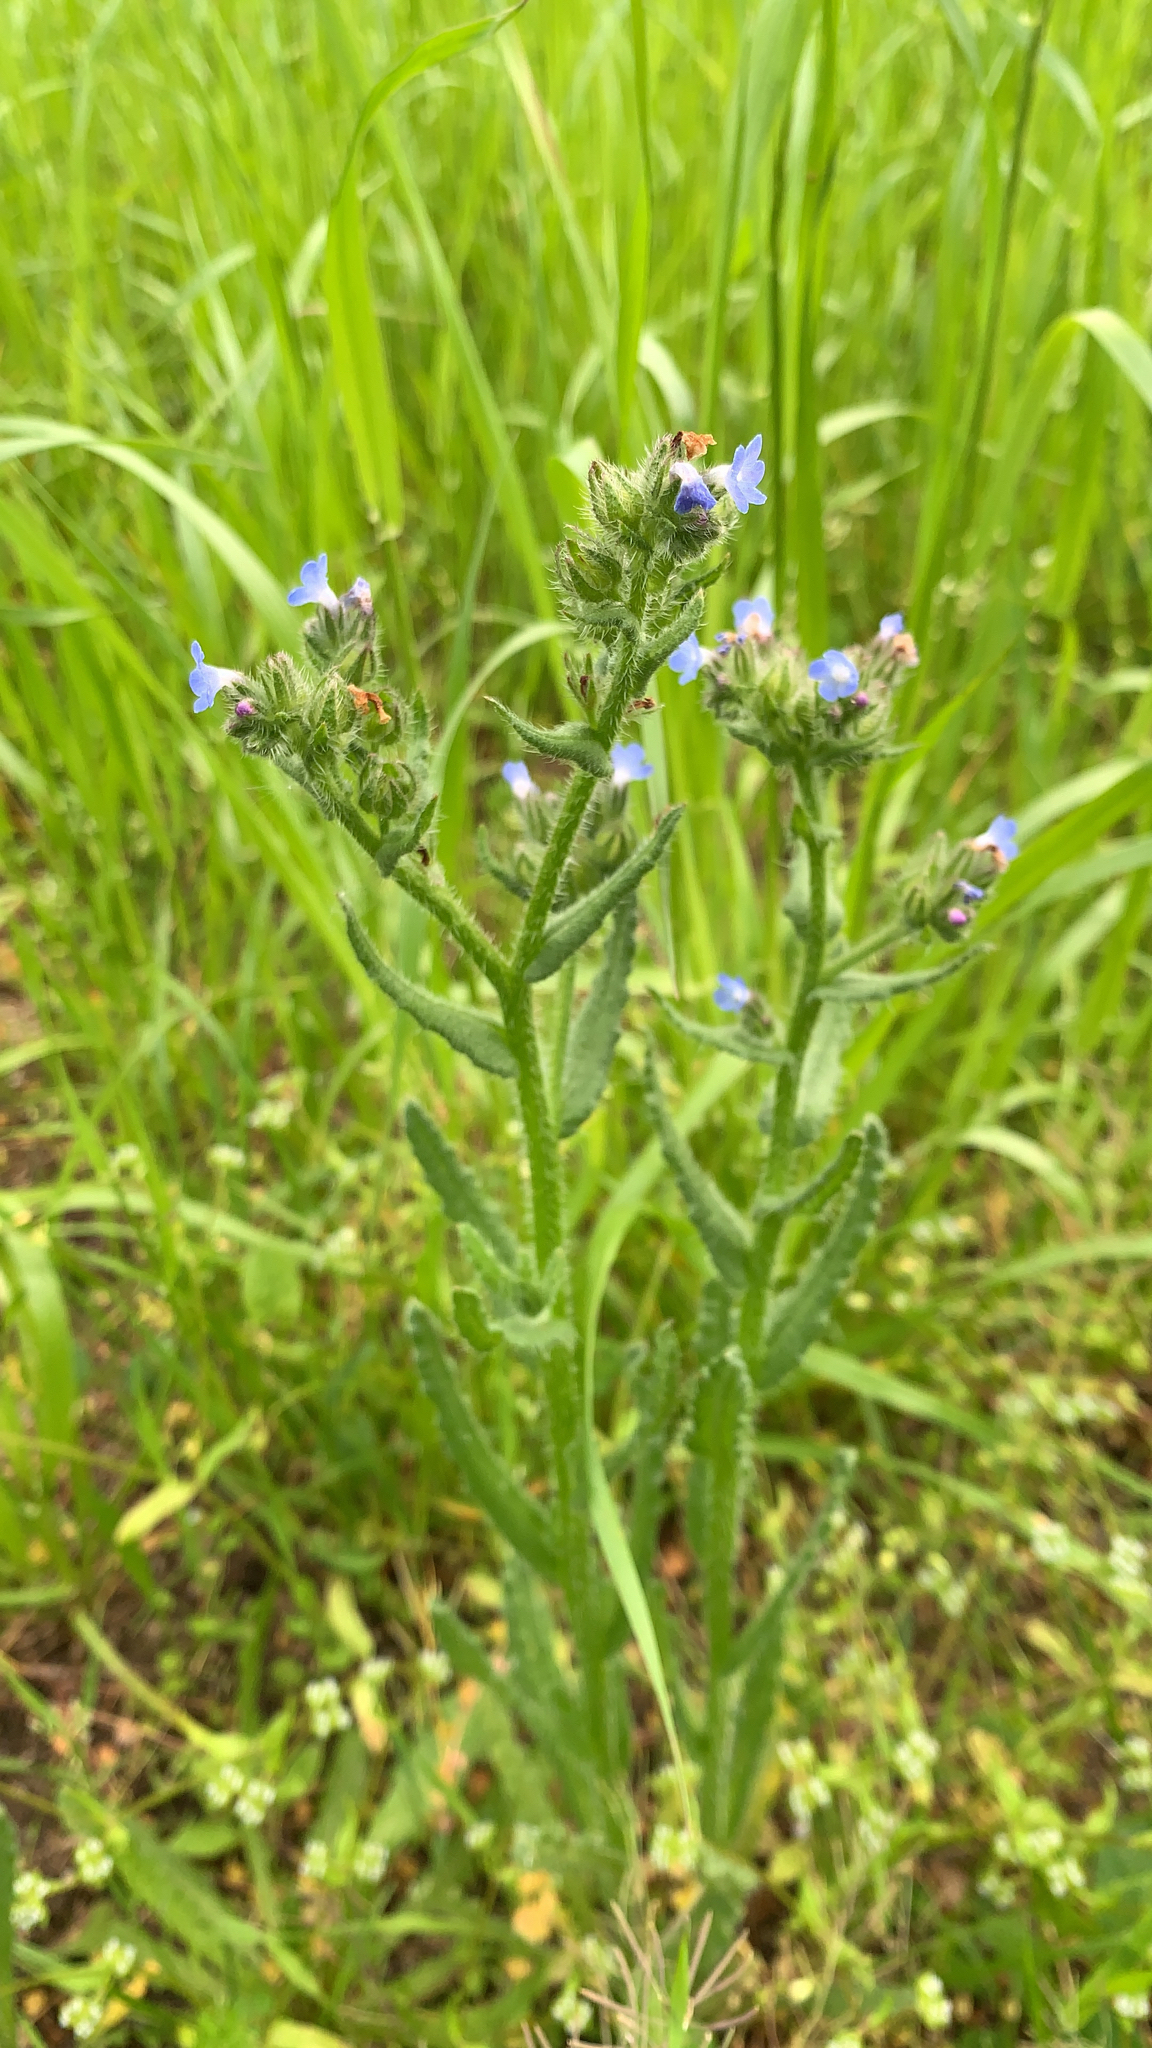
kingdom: Plantae
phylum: Tracheophyta
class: Magnoliopsida
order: Boraginales
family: Boraginaceae
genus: Lycopsis
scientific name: Lycopsis arvensis
